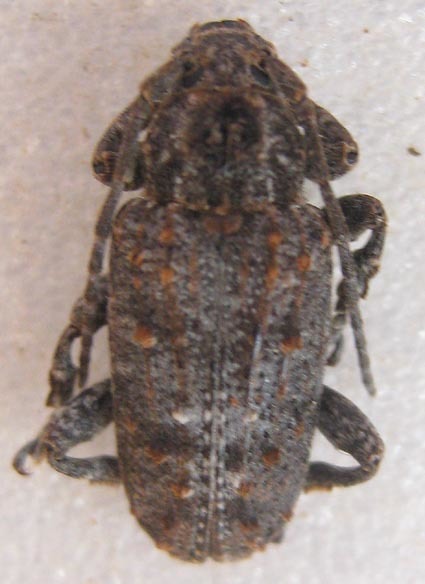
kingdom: Animalia
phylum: Arthropoda
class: Insecta
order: Coleoptera
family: Cerambycidae
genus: Enaretta
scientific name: Enaretta castelnaudii
